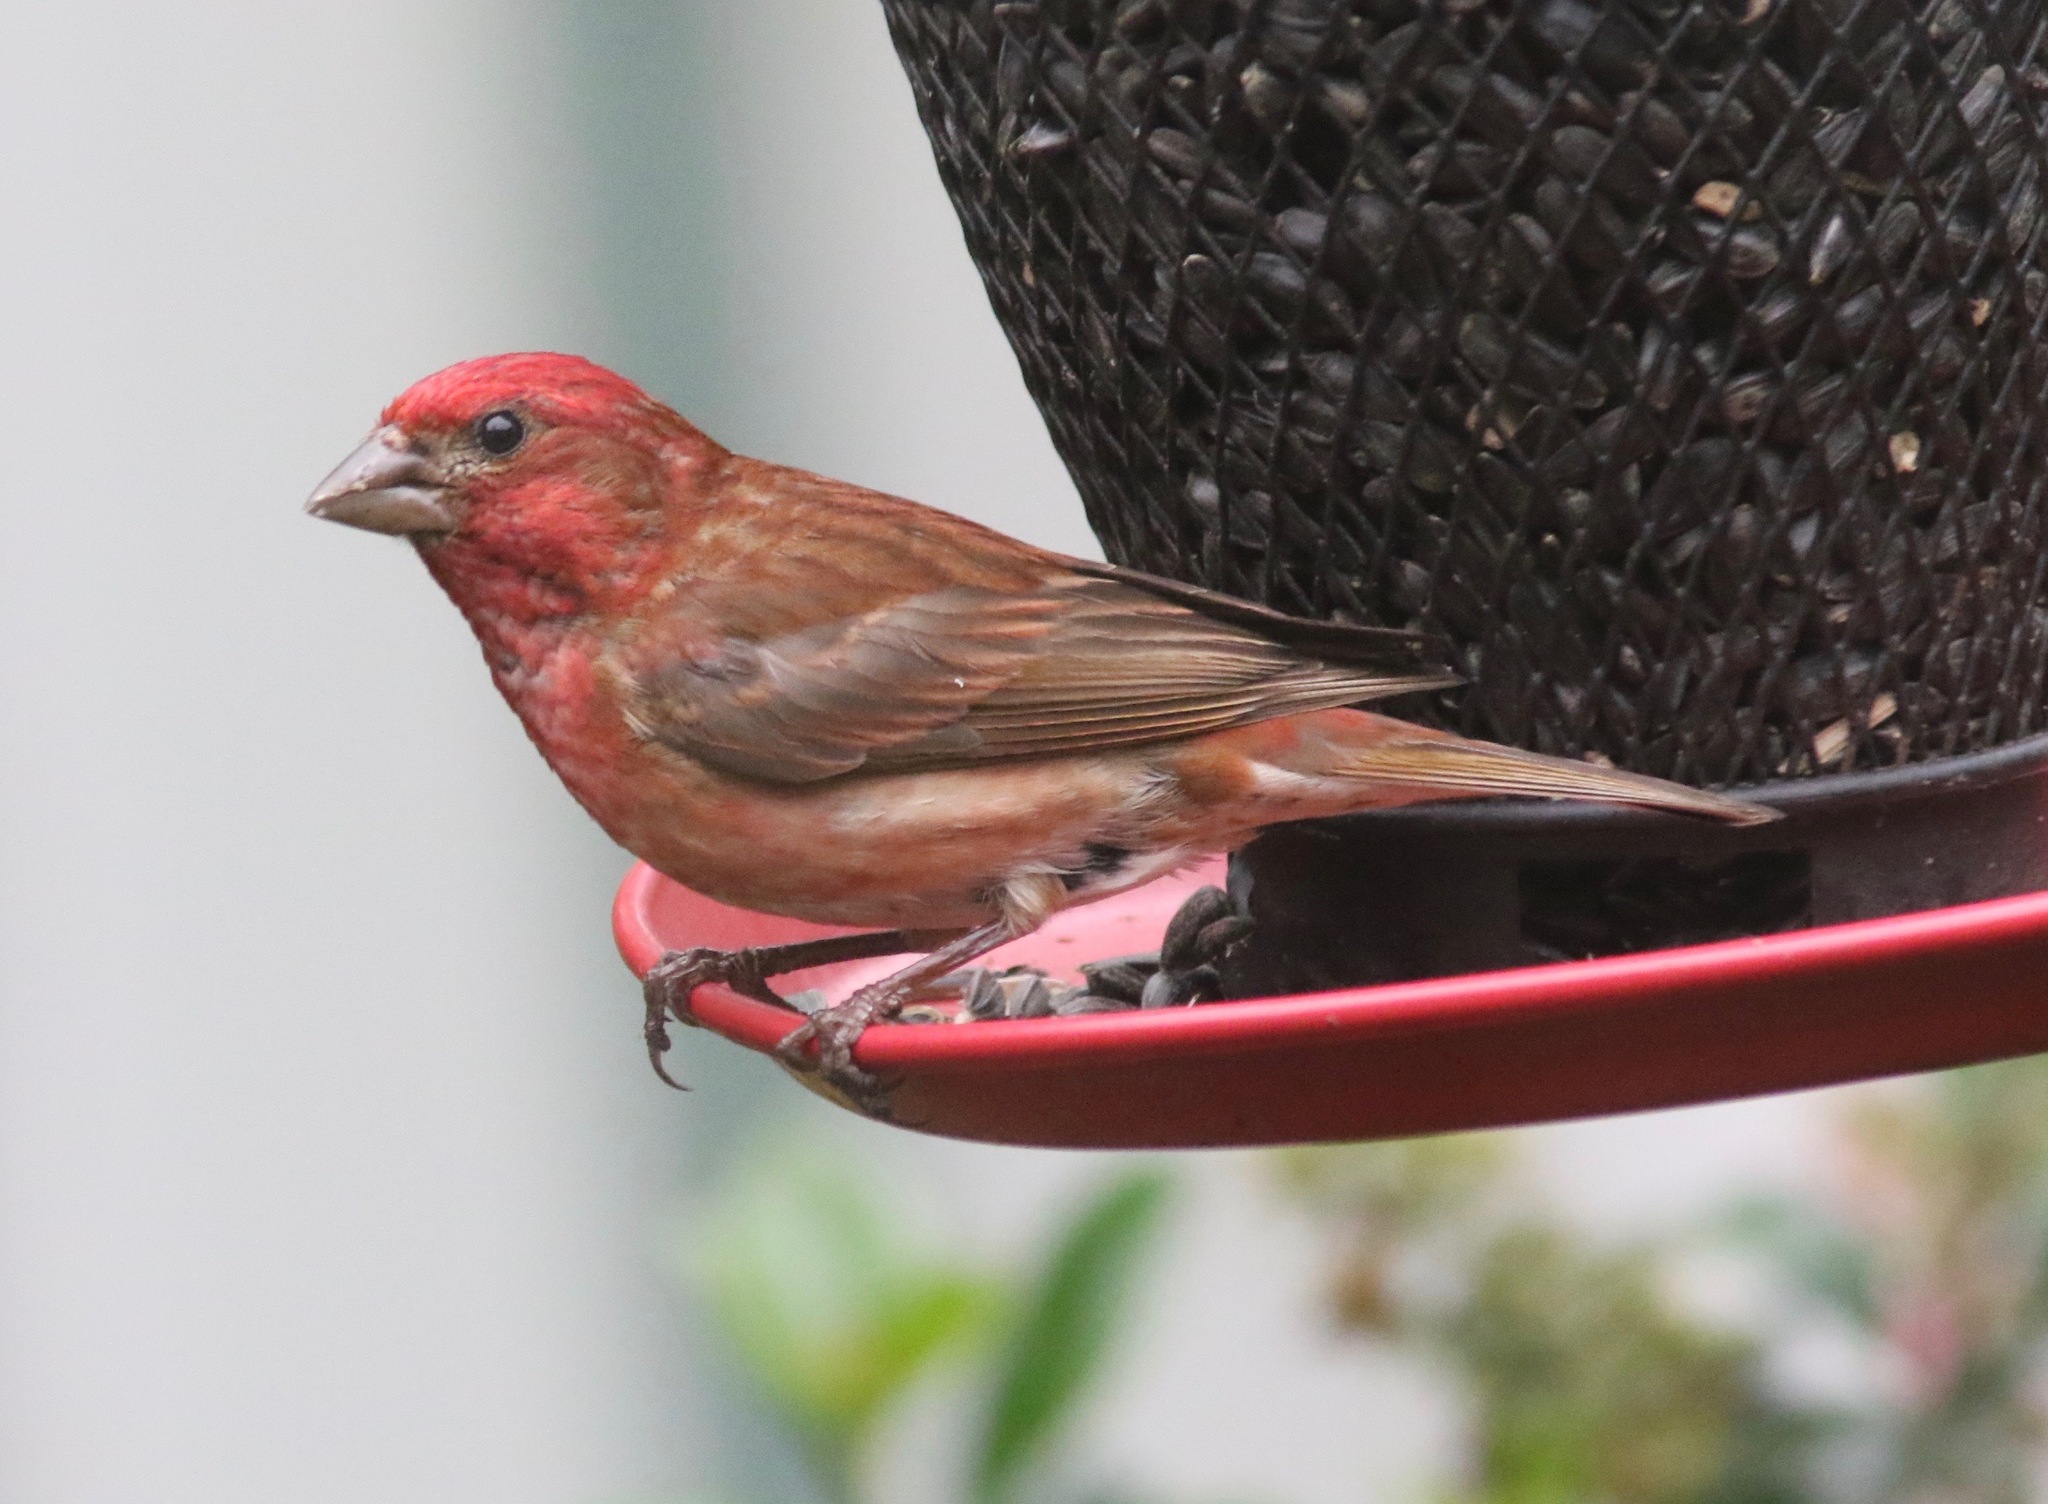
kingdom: Animalia
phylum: Chordata
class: Aves
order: Passeriformes
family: Fringillidae
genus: Haemorhous
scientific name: Haemorhous purpureus
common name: Purple finch
